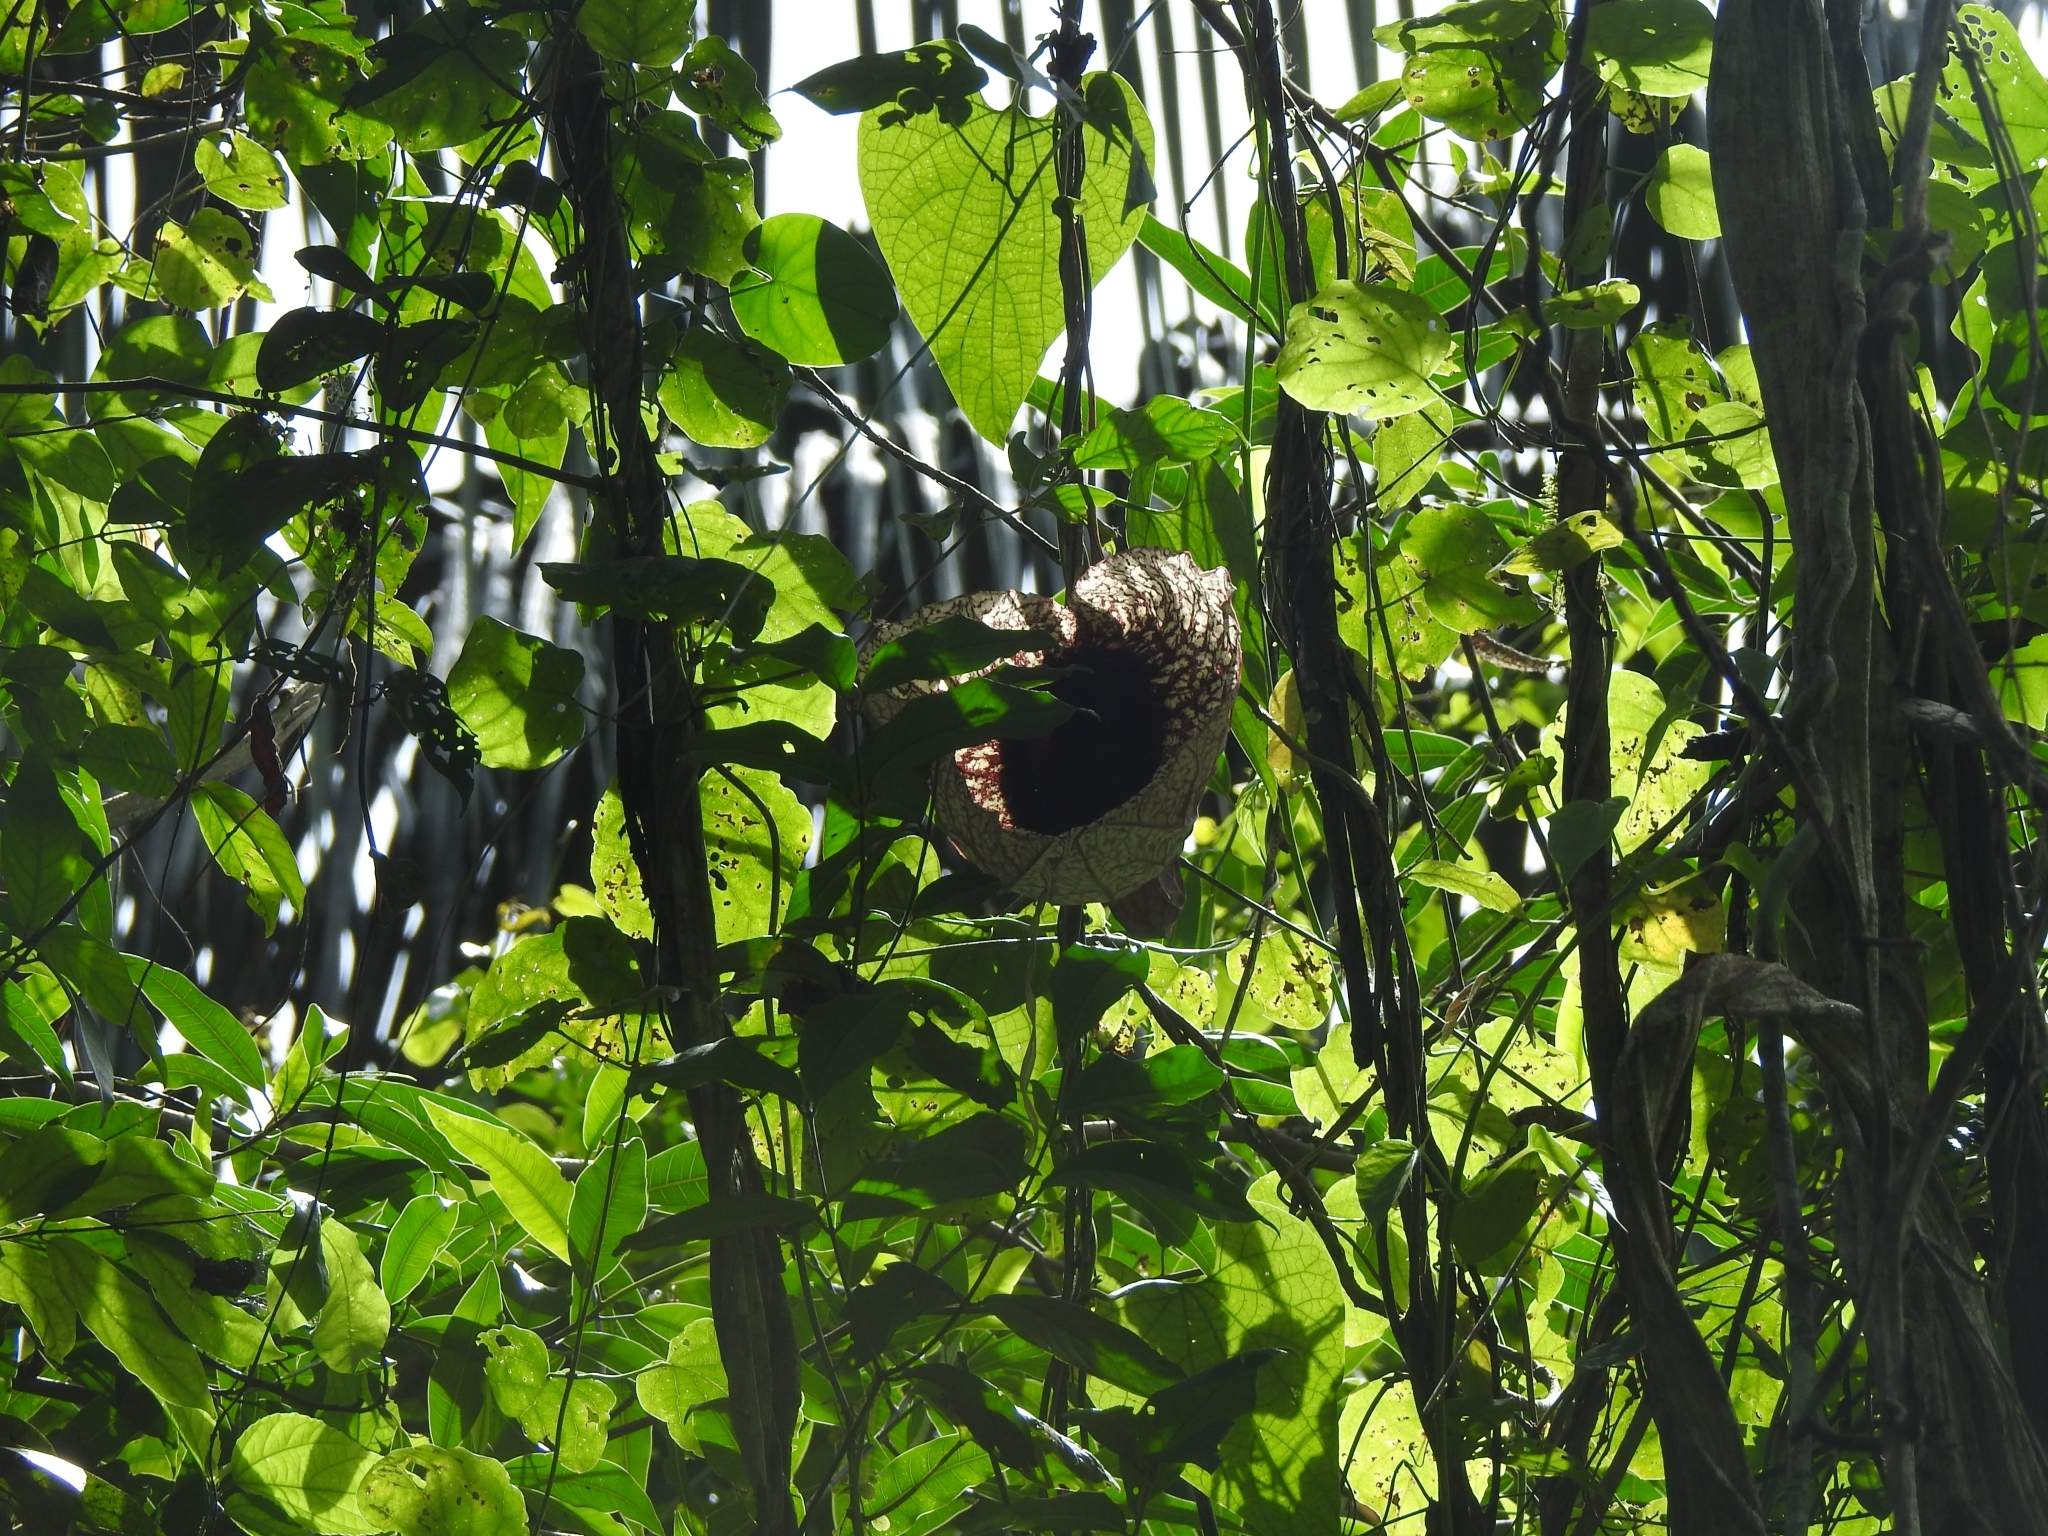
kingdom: Plantae
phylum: Tracheophyta
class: Magnoliopsida
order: Piperales
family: Aristolochiaceae
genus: Aristolochia
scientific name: Aristolochia grandiflora
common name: Pelicanflower
